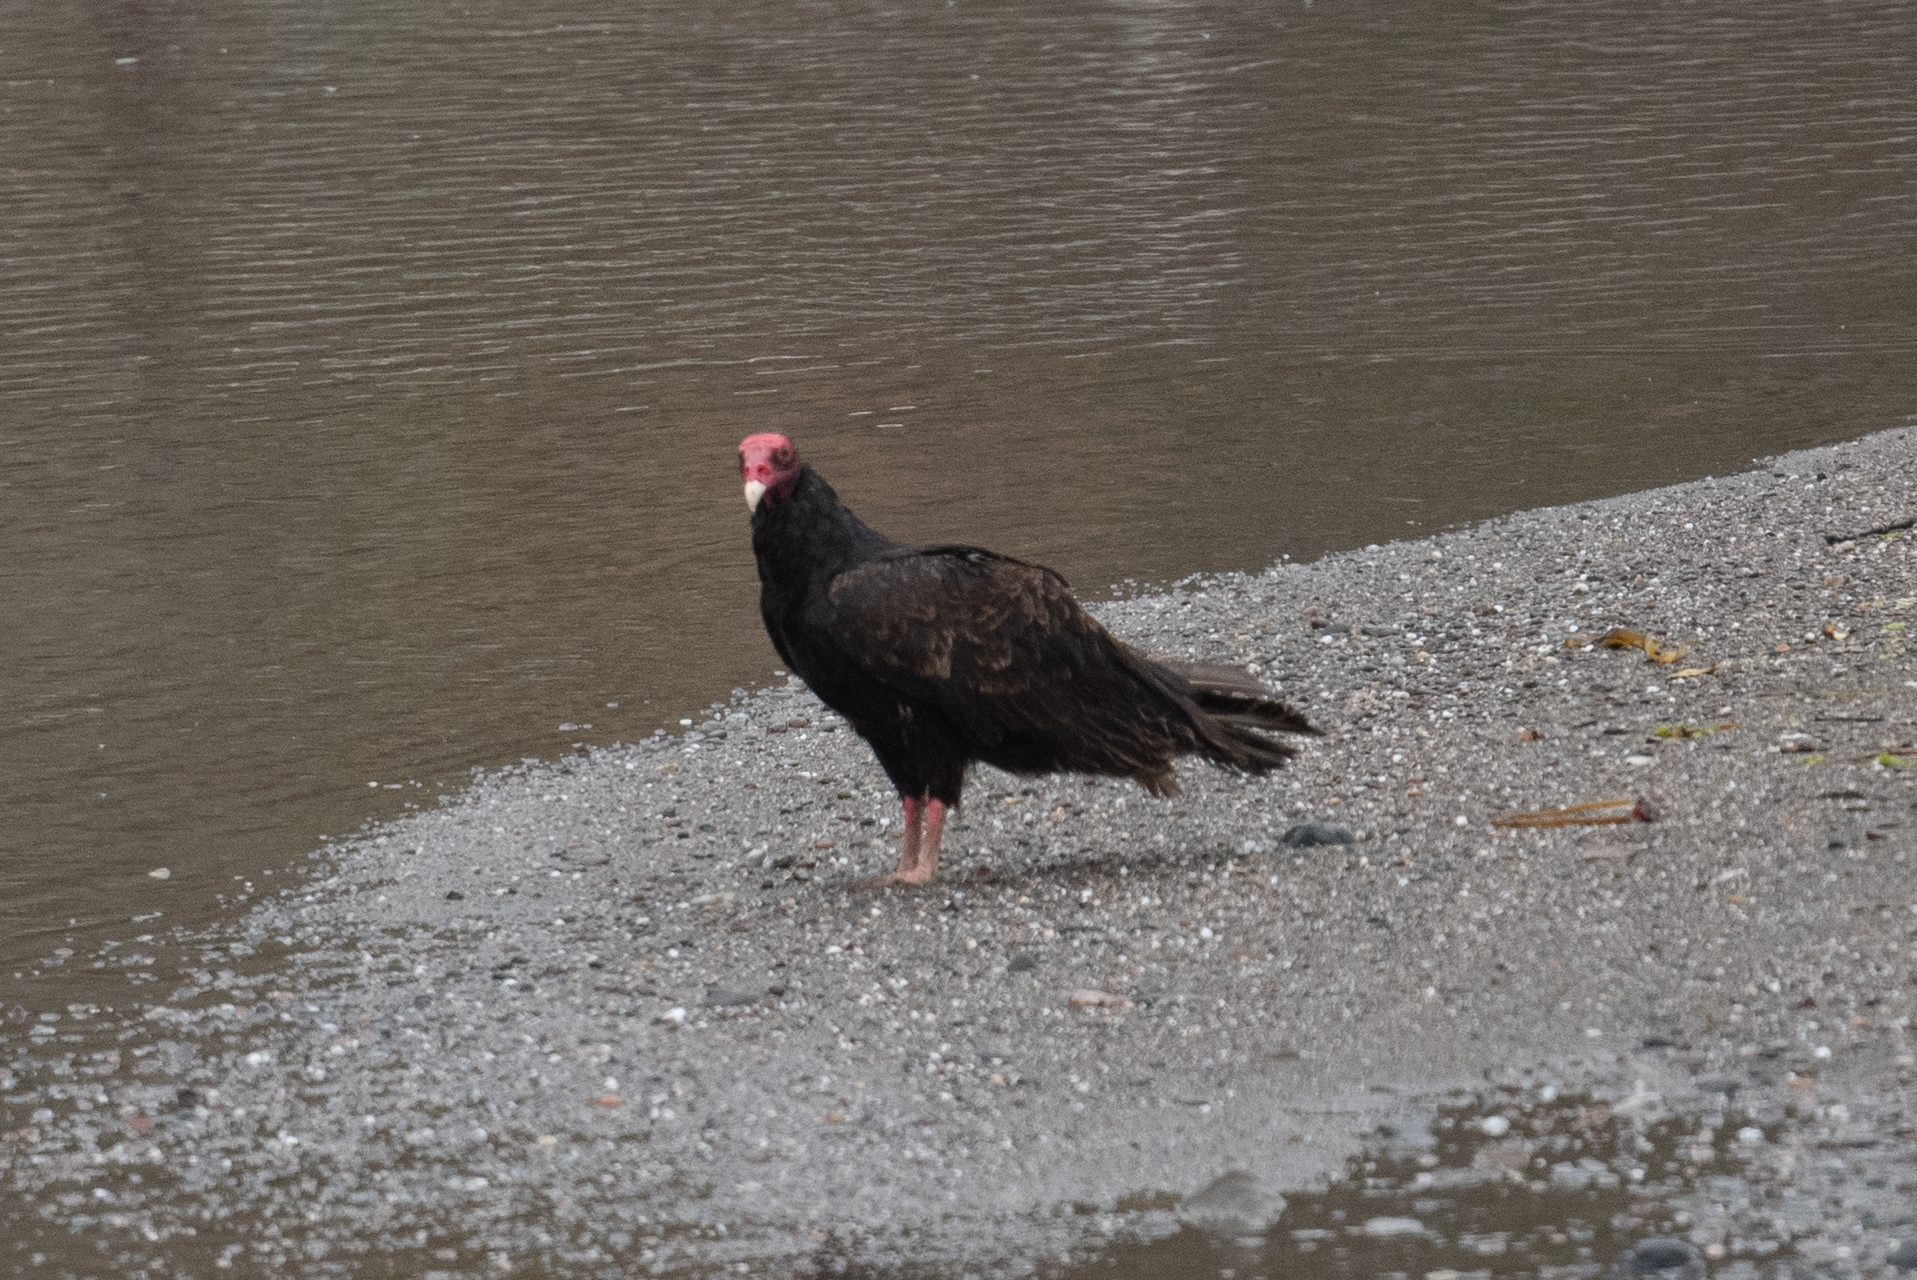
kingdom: Animalia
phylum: Chordata
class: Aves
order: Accipitriformes
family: Cathartidae
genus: Cathartes
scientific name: Cathartes aura
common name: Turkey vulture
